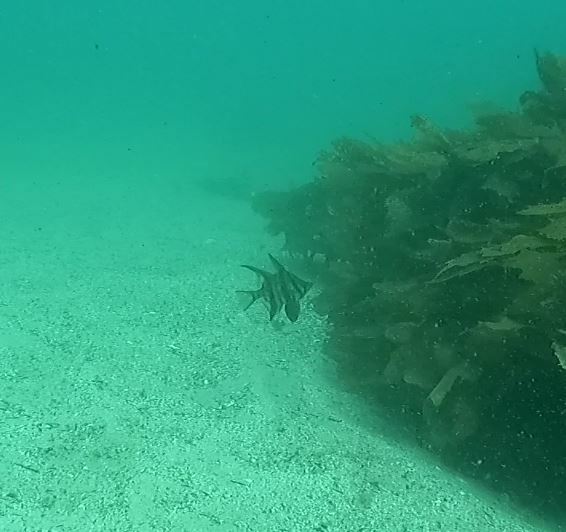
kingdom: Animalia
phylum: Chordata
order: Perciformes
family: Enoplosidae
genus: Enoplosus
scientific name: Enoplosus armatus
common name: Old wife
